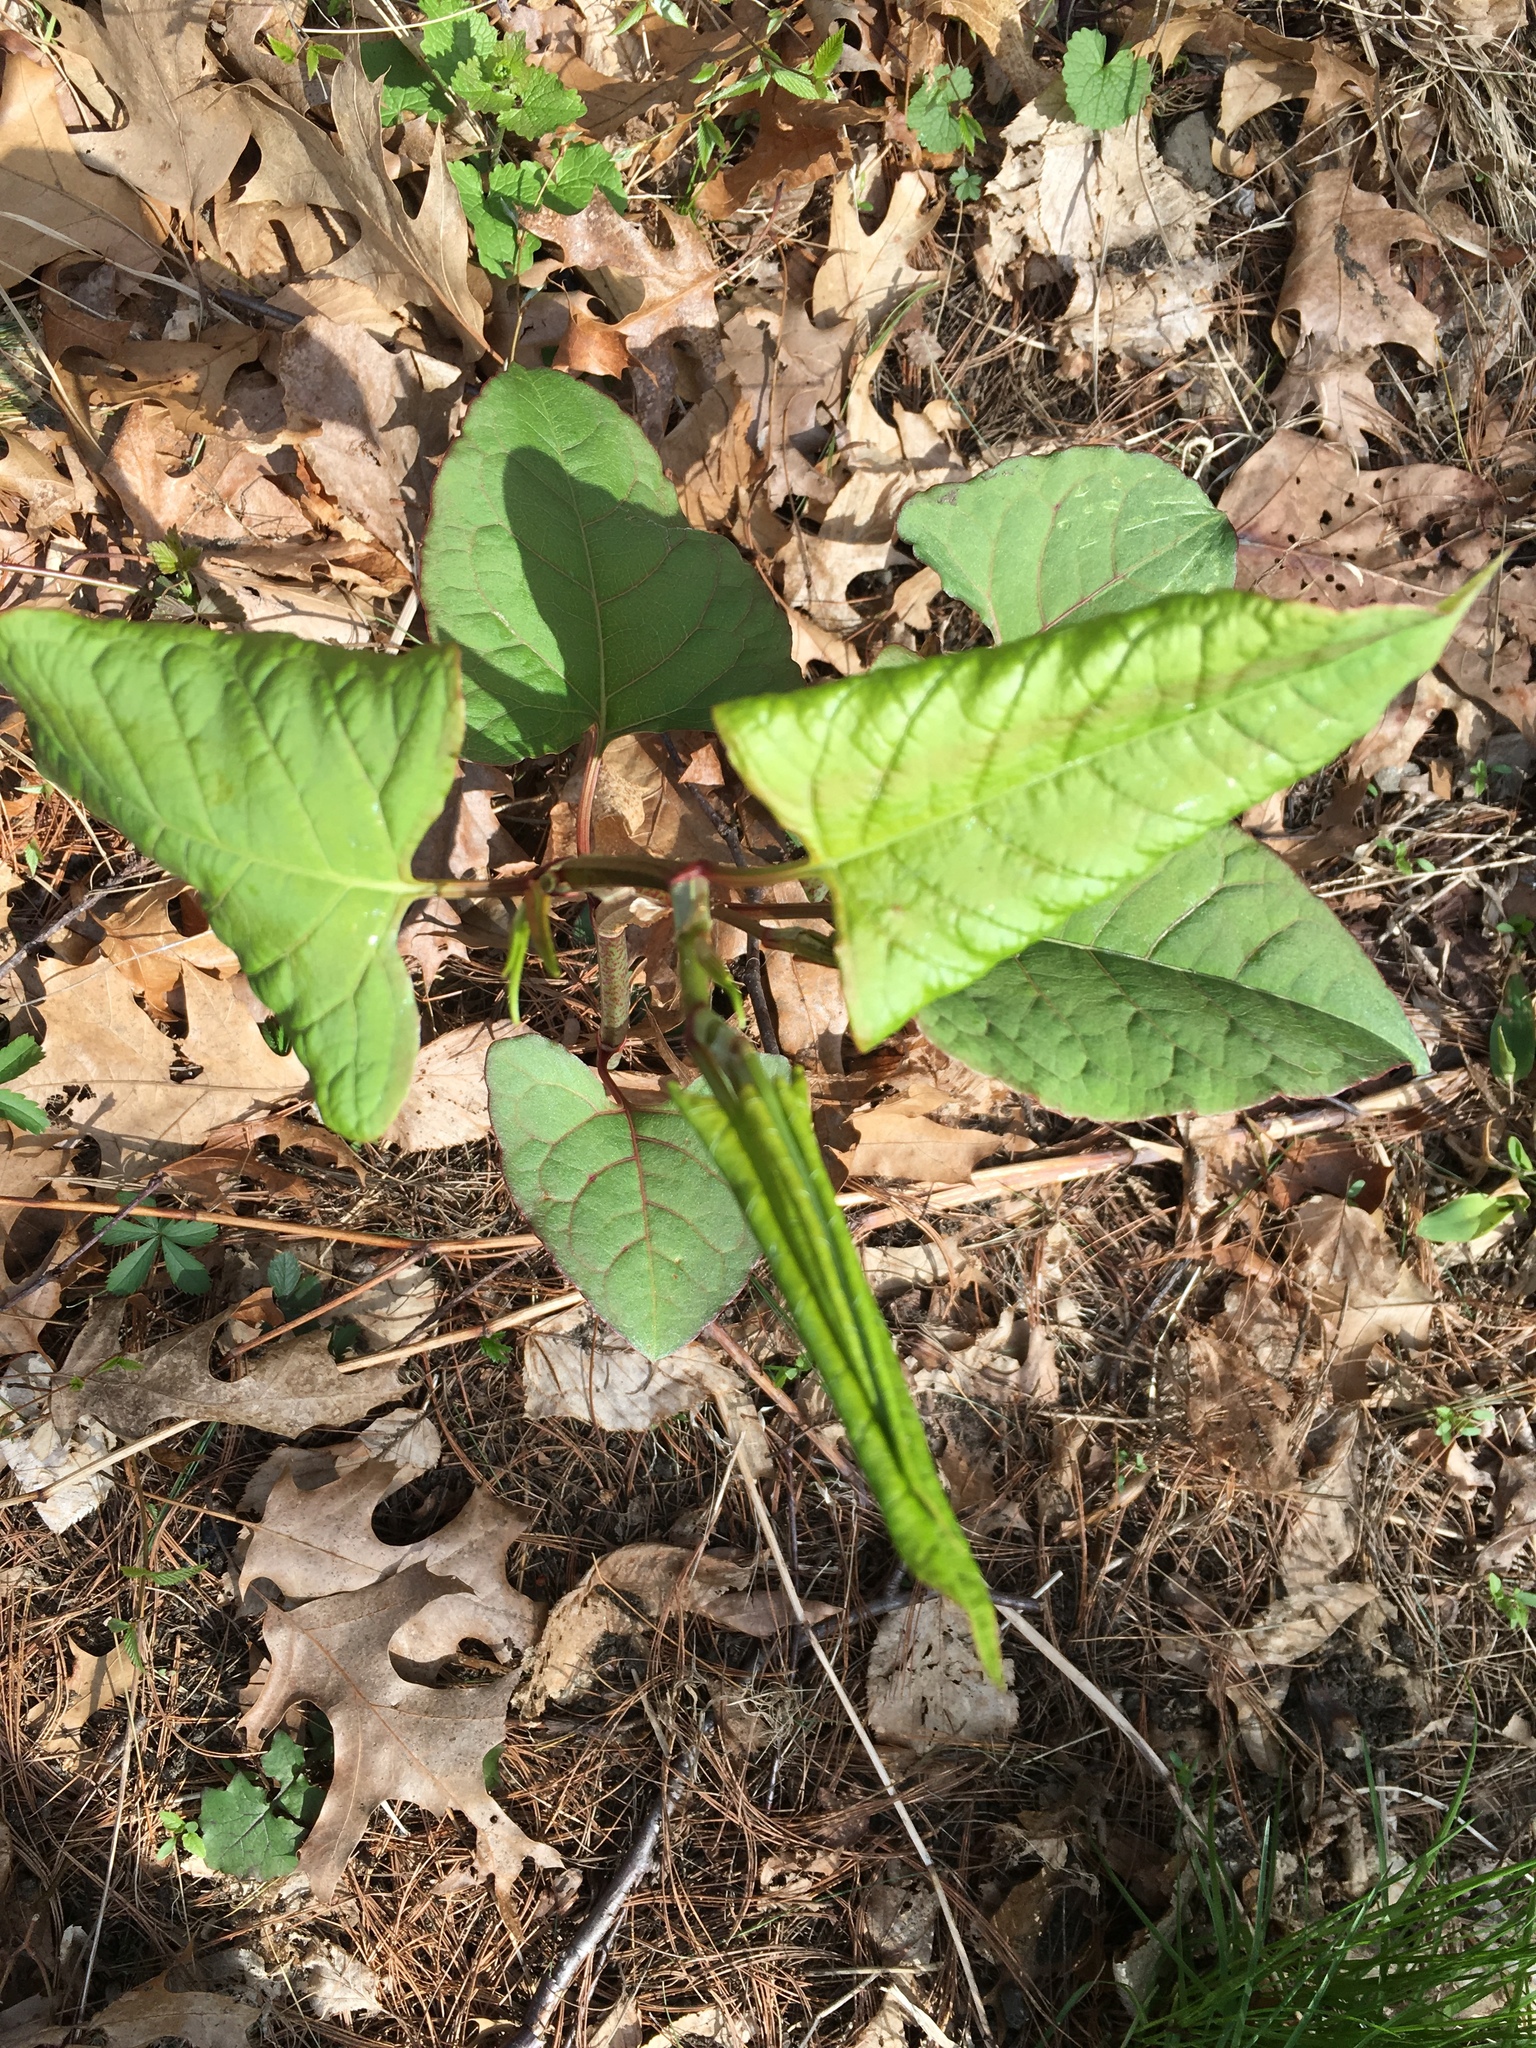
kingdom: Plantae
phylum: Tracheophyta
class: Magnoliopsida
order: Caryophyllales
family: Polygonaceae
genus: Reynoutria
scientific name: Reynoutria japonica
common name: Japanese knotweed
